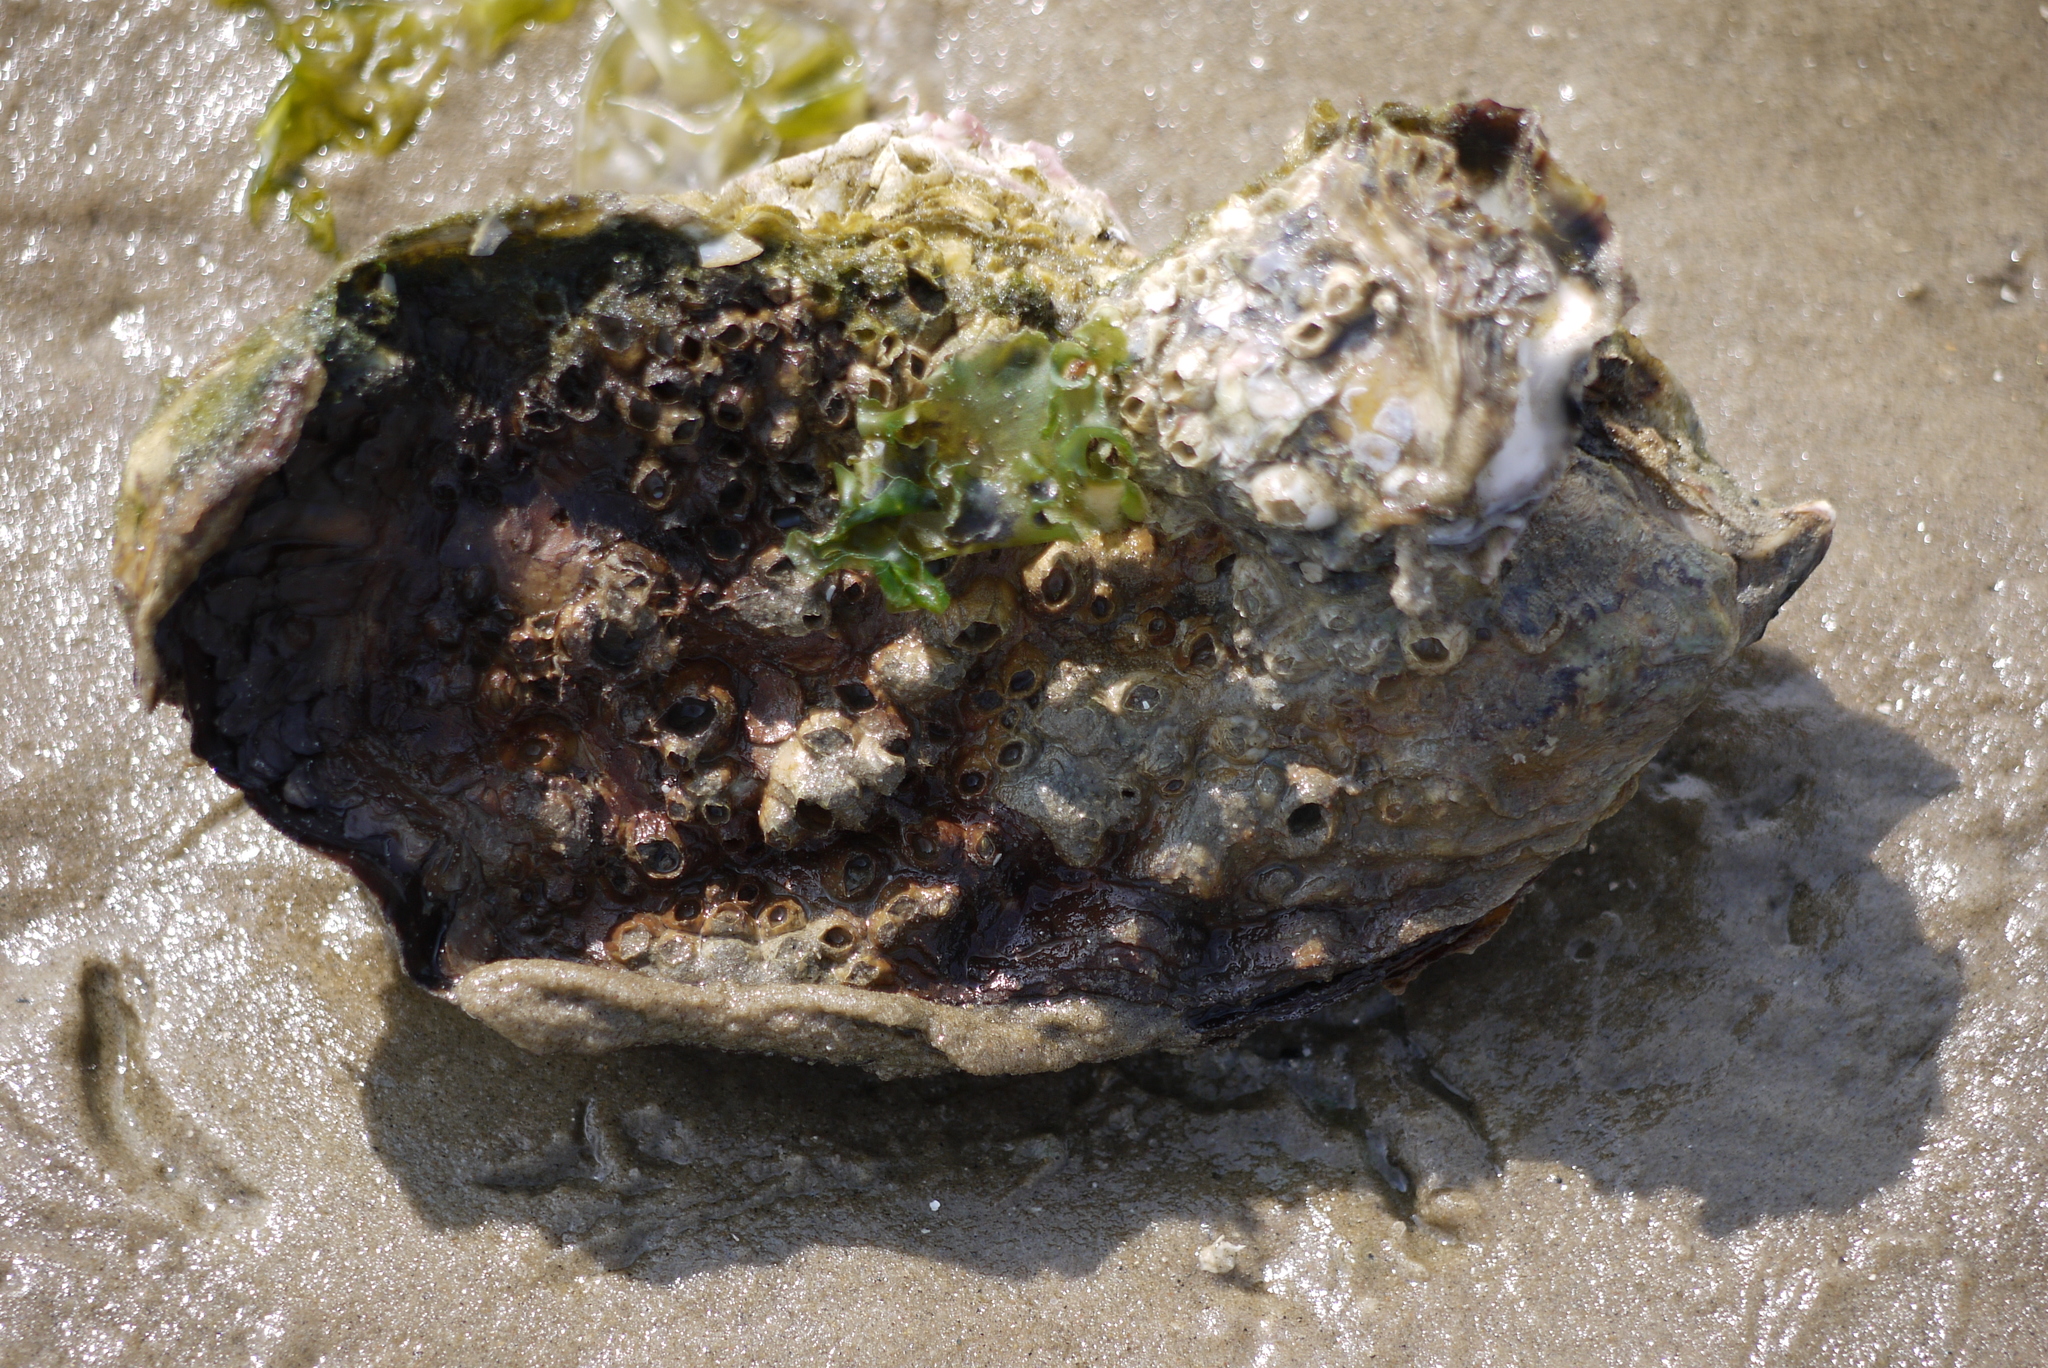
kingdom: Animalia
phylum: Mollusca
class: Bivalvia
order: Ostreida
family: Ostreidae
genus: Magallana
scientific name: Magallana gigas
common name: Pacific oyster
